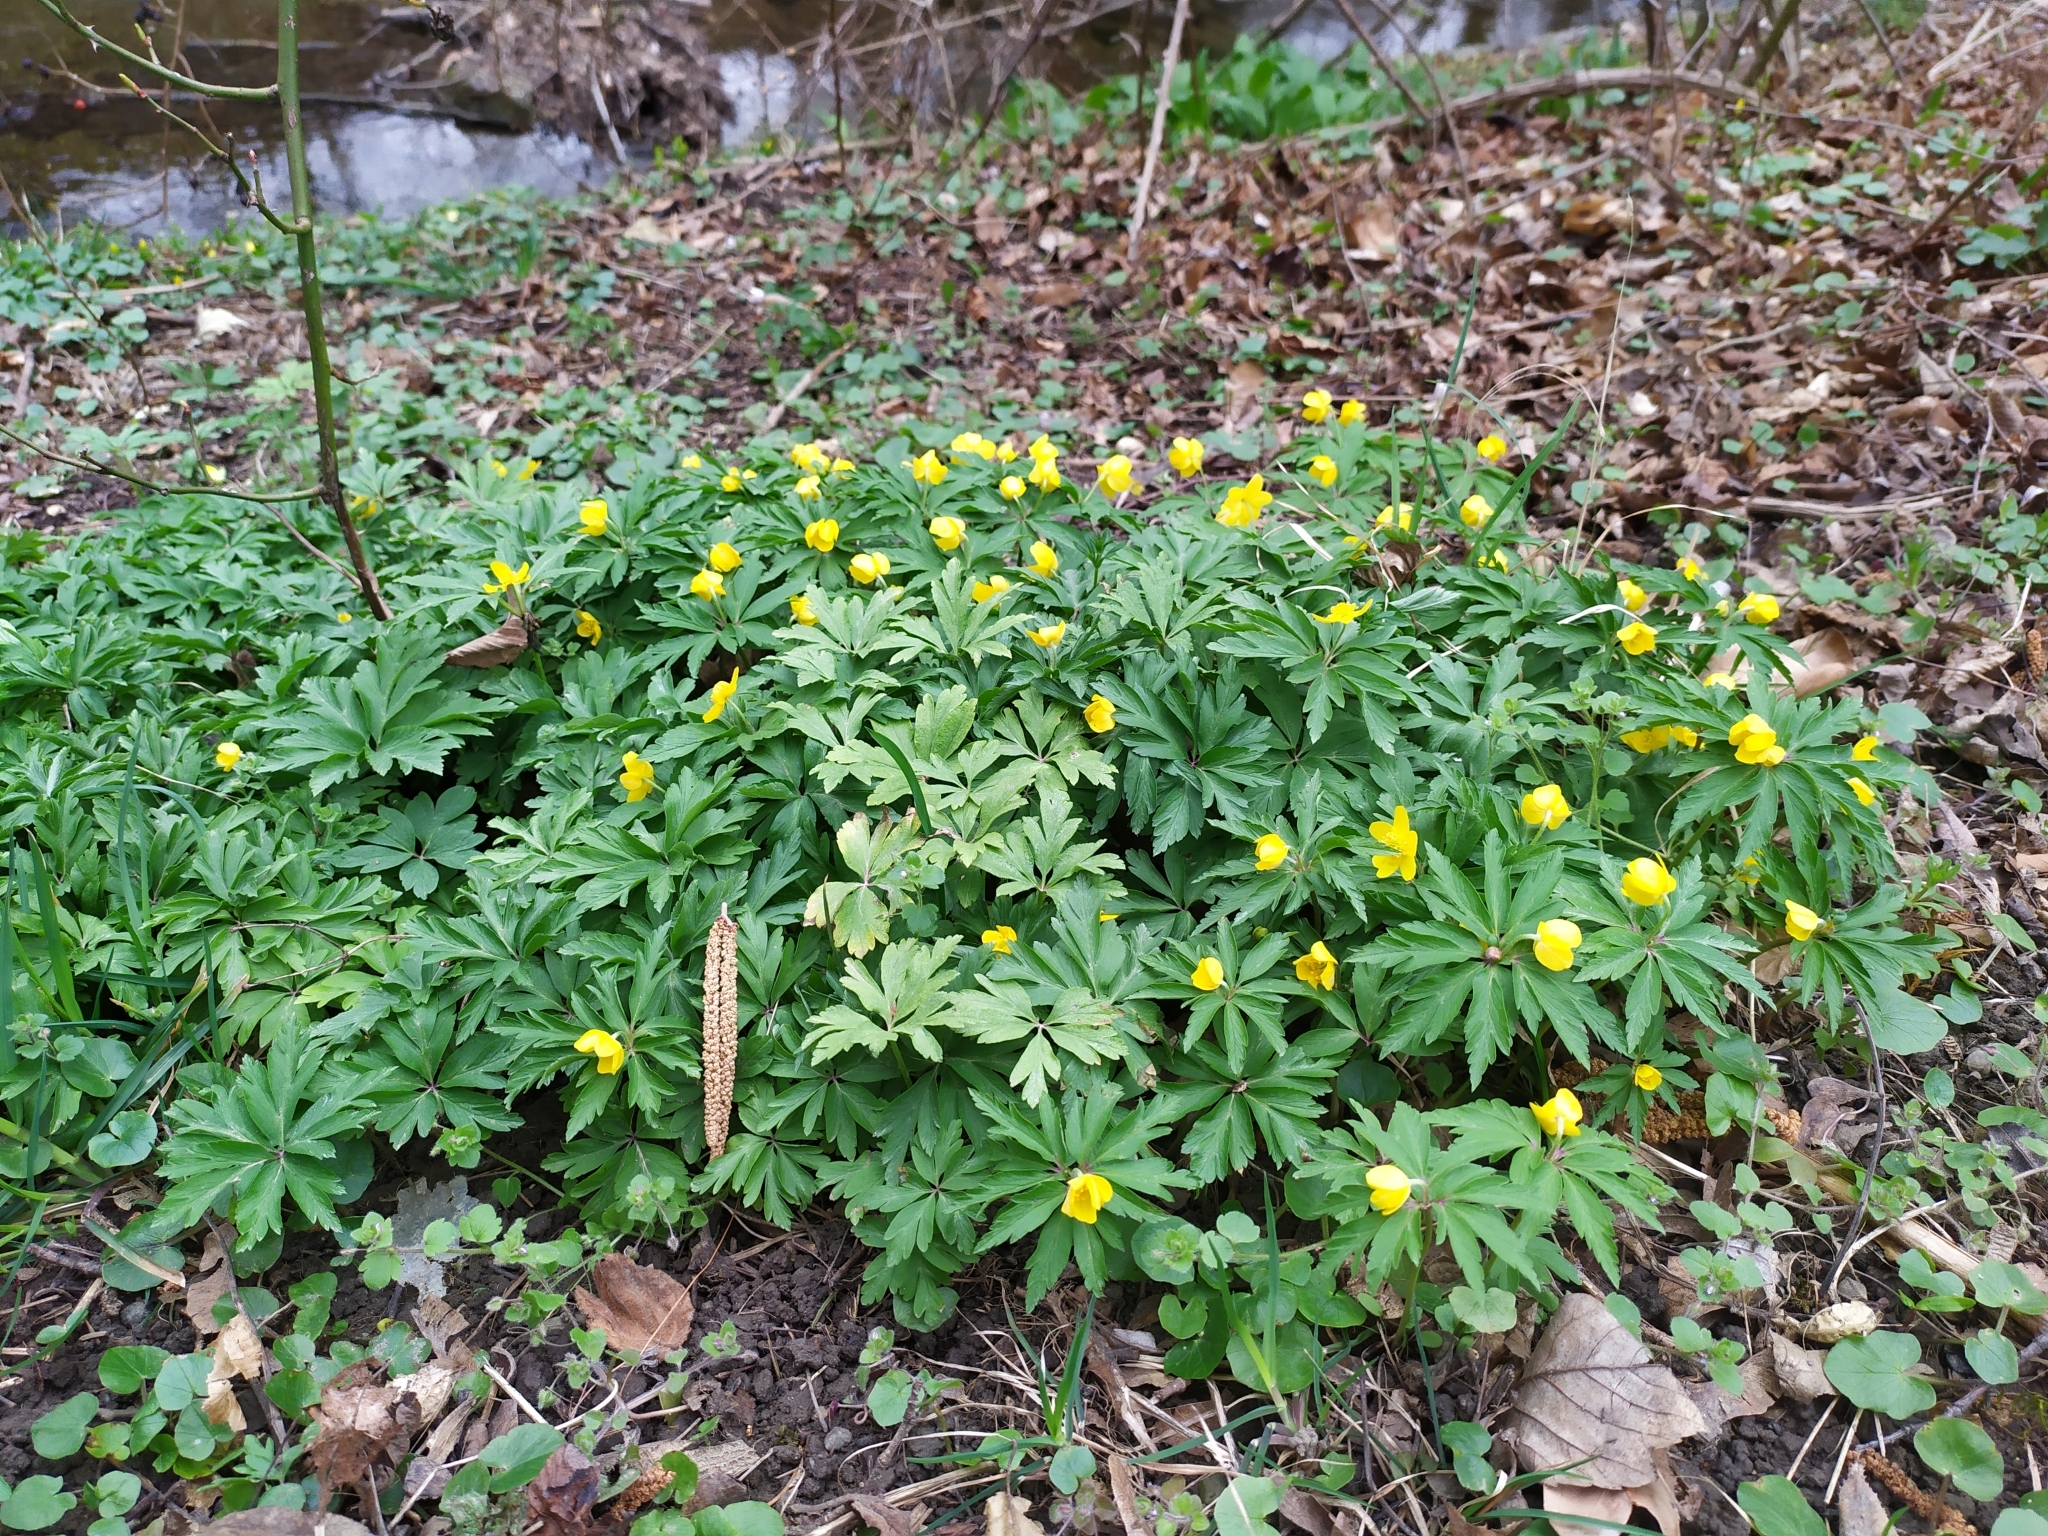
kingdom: Plantae
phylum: Tracheophyta
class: Magnoliopsida
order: Ranunculales
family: Ranunculaceae
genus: Anemone
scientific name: Anemone ranunculoides
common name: Yellow anemone
